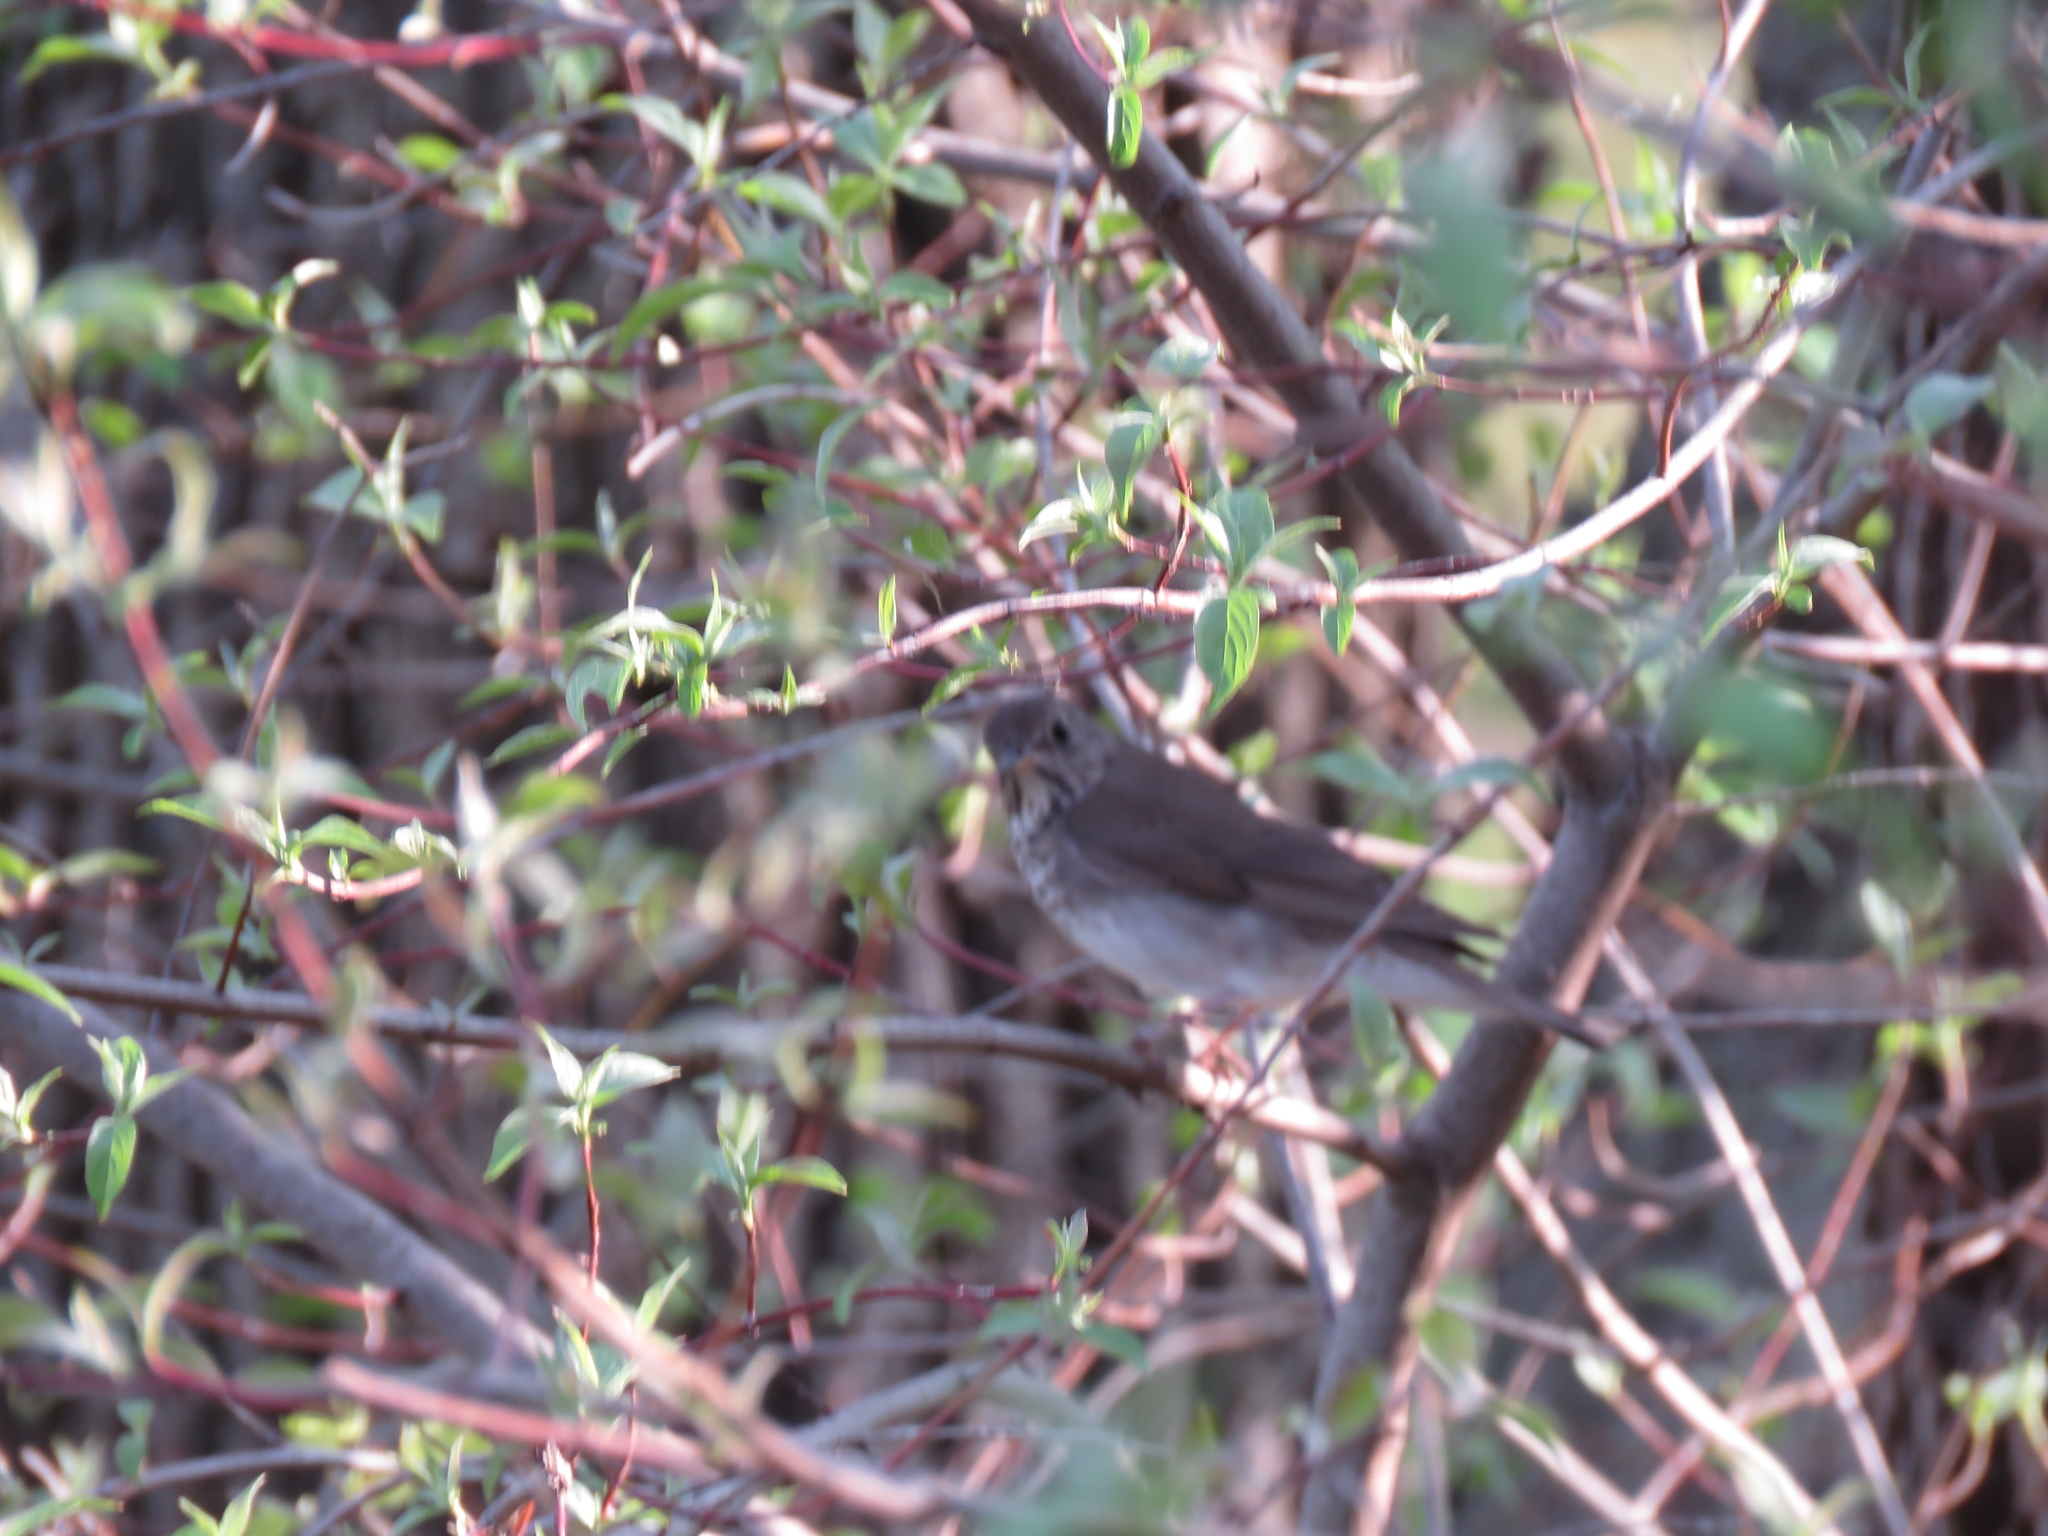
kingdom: Animalia
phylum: Chordata
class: Aves
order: Passeriformes
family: Turdidae
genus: Catharus
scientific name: Catharus guttatus
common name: Hermit thrush
